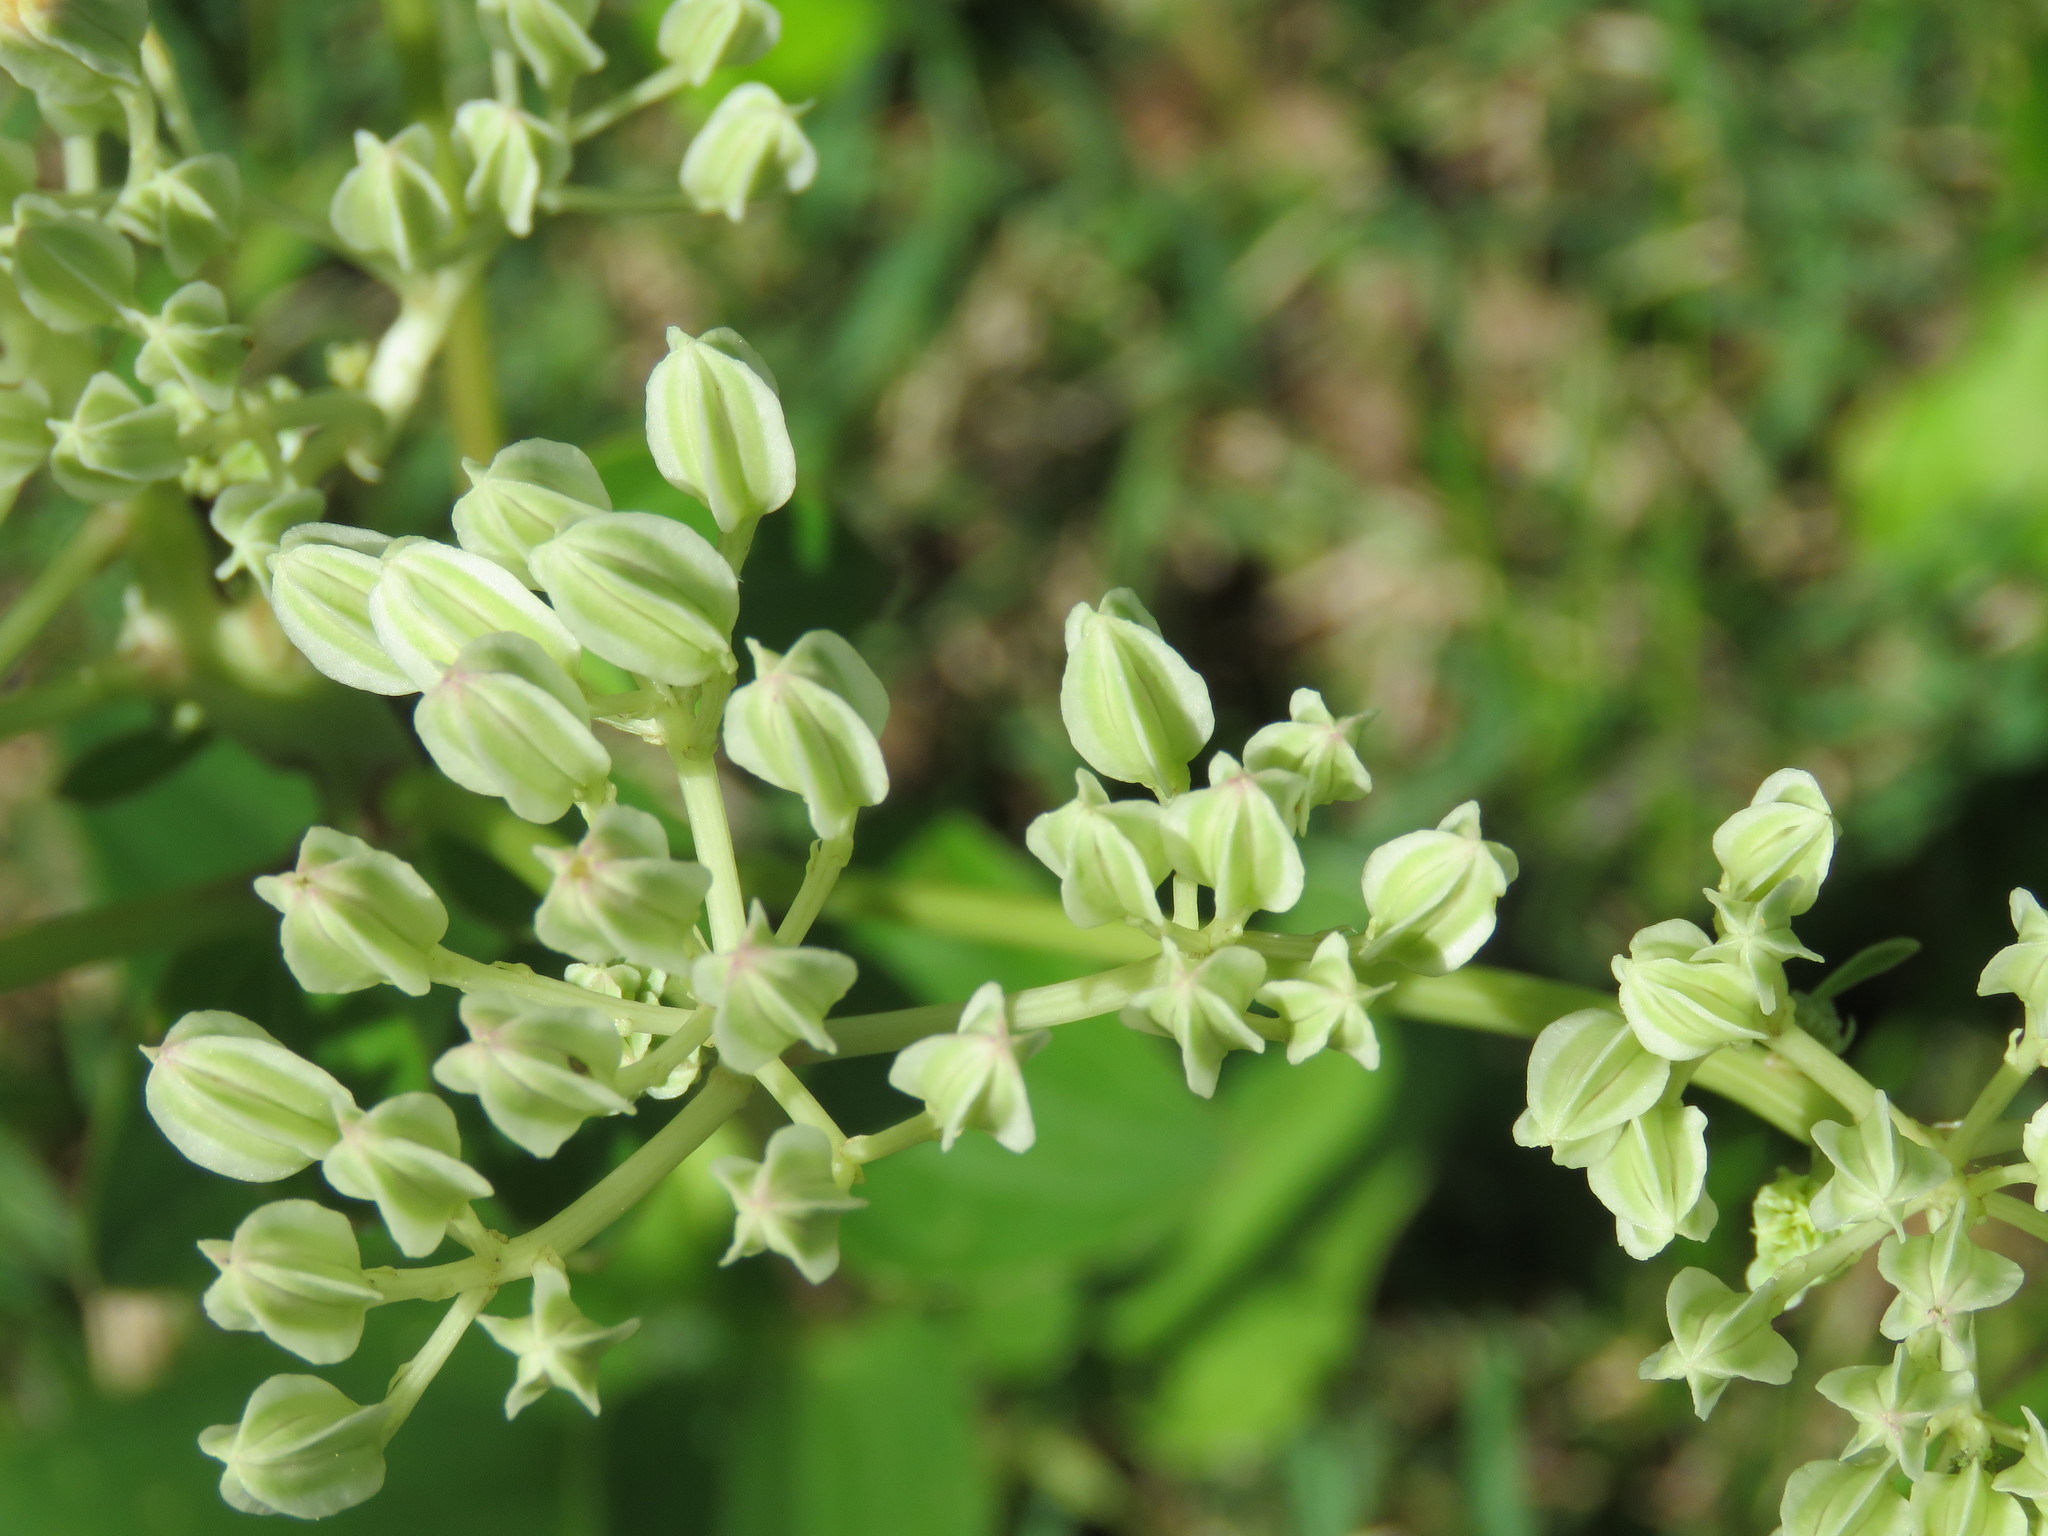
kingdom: Plantae
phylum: Tracheophyta
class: Magnoliopsida
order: Asterales
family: Asteraceae
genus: Arnoglossum
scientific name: Arnoglossum plantagineum
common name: Groove-stemmed indian-plantain
